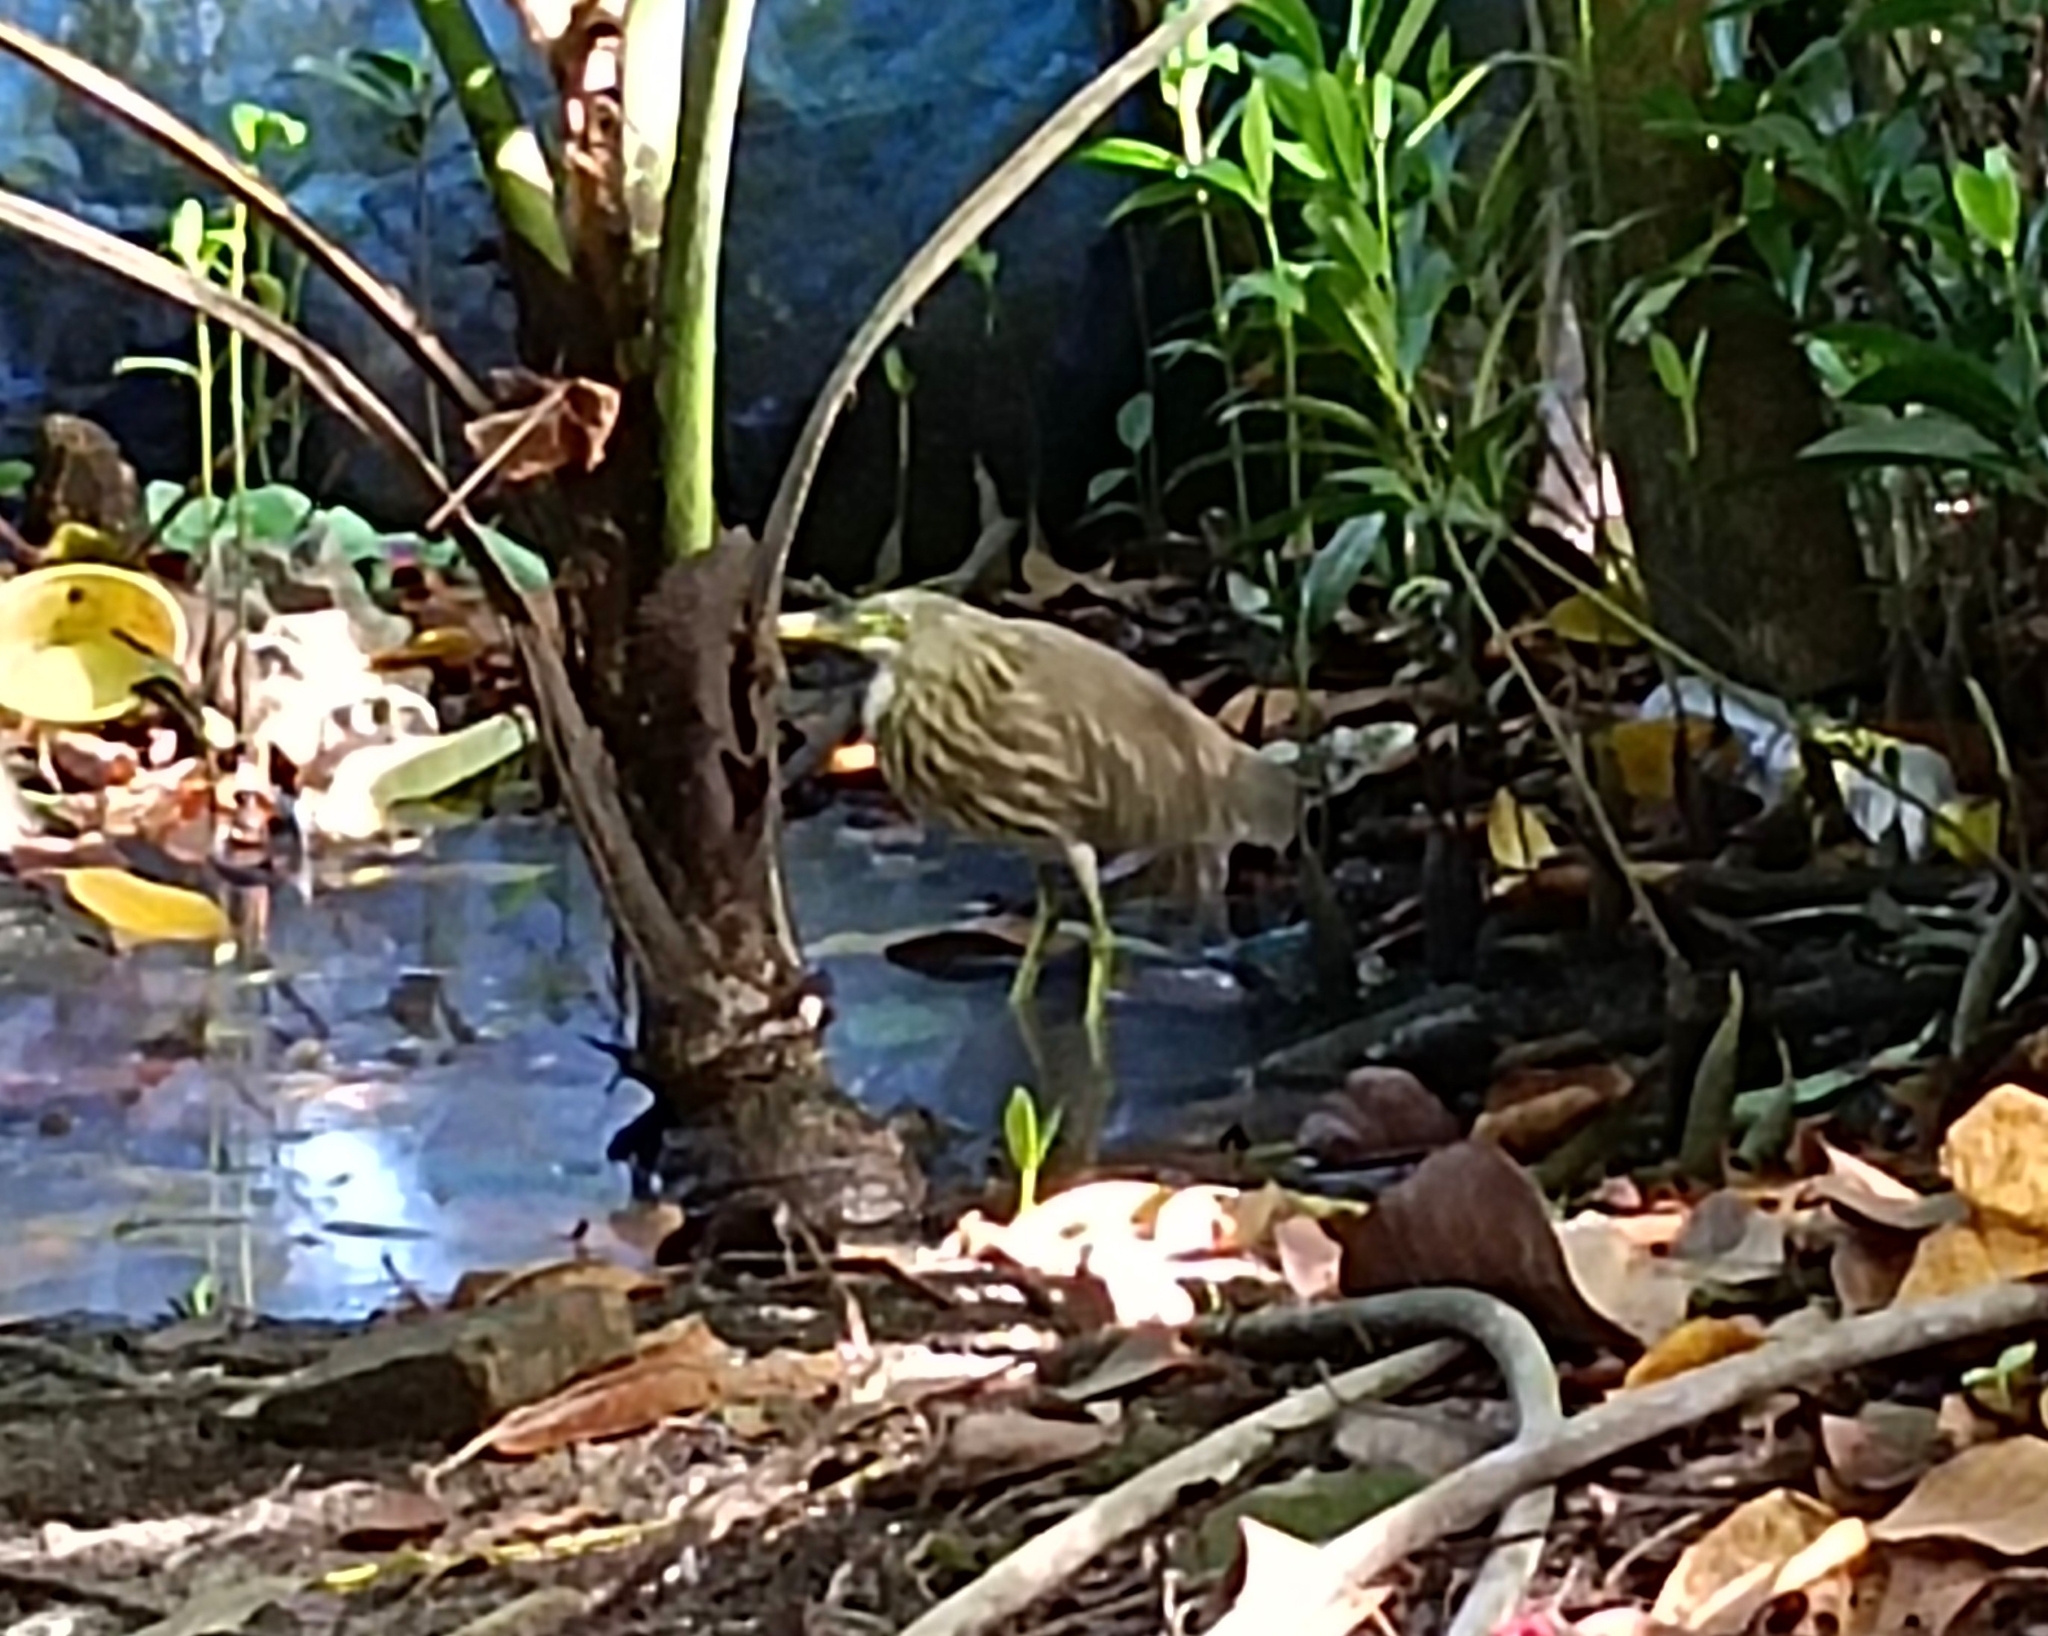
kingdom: Animalia
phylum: Chordata
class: Aves
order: Pelecaniformes
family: Ardeidae
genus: Ardeola
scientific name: Ardeola grayii
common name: Indian pond heron
